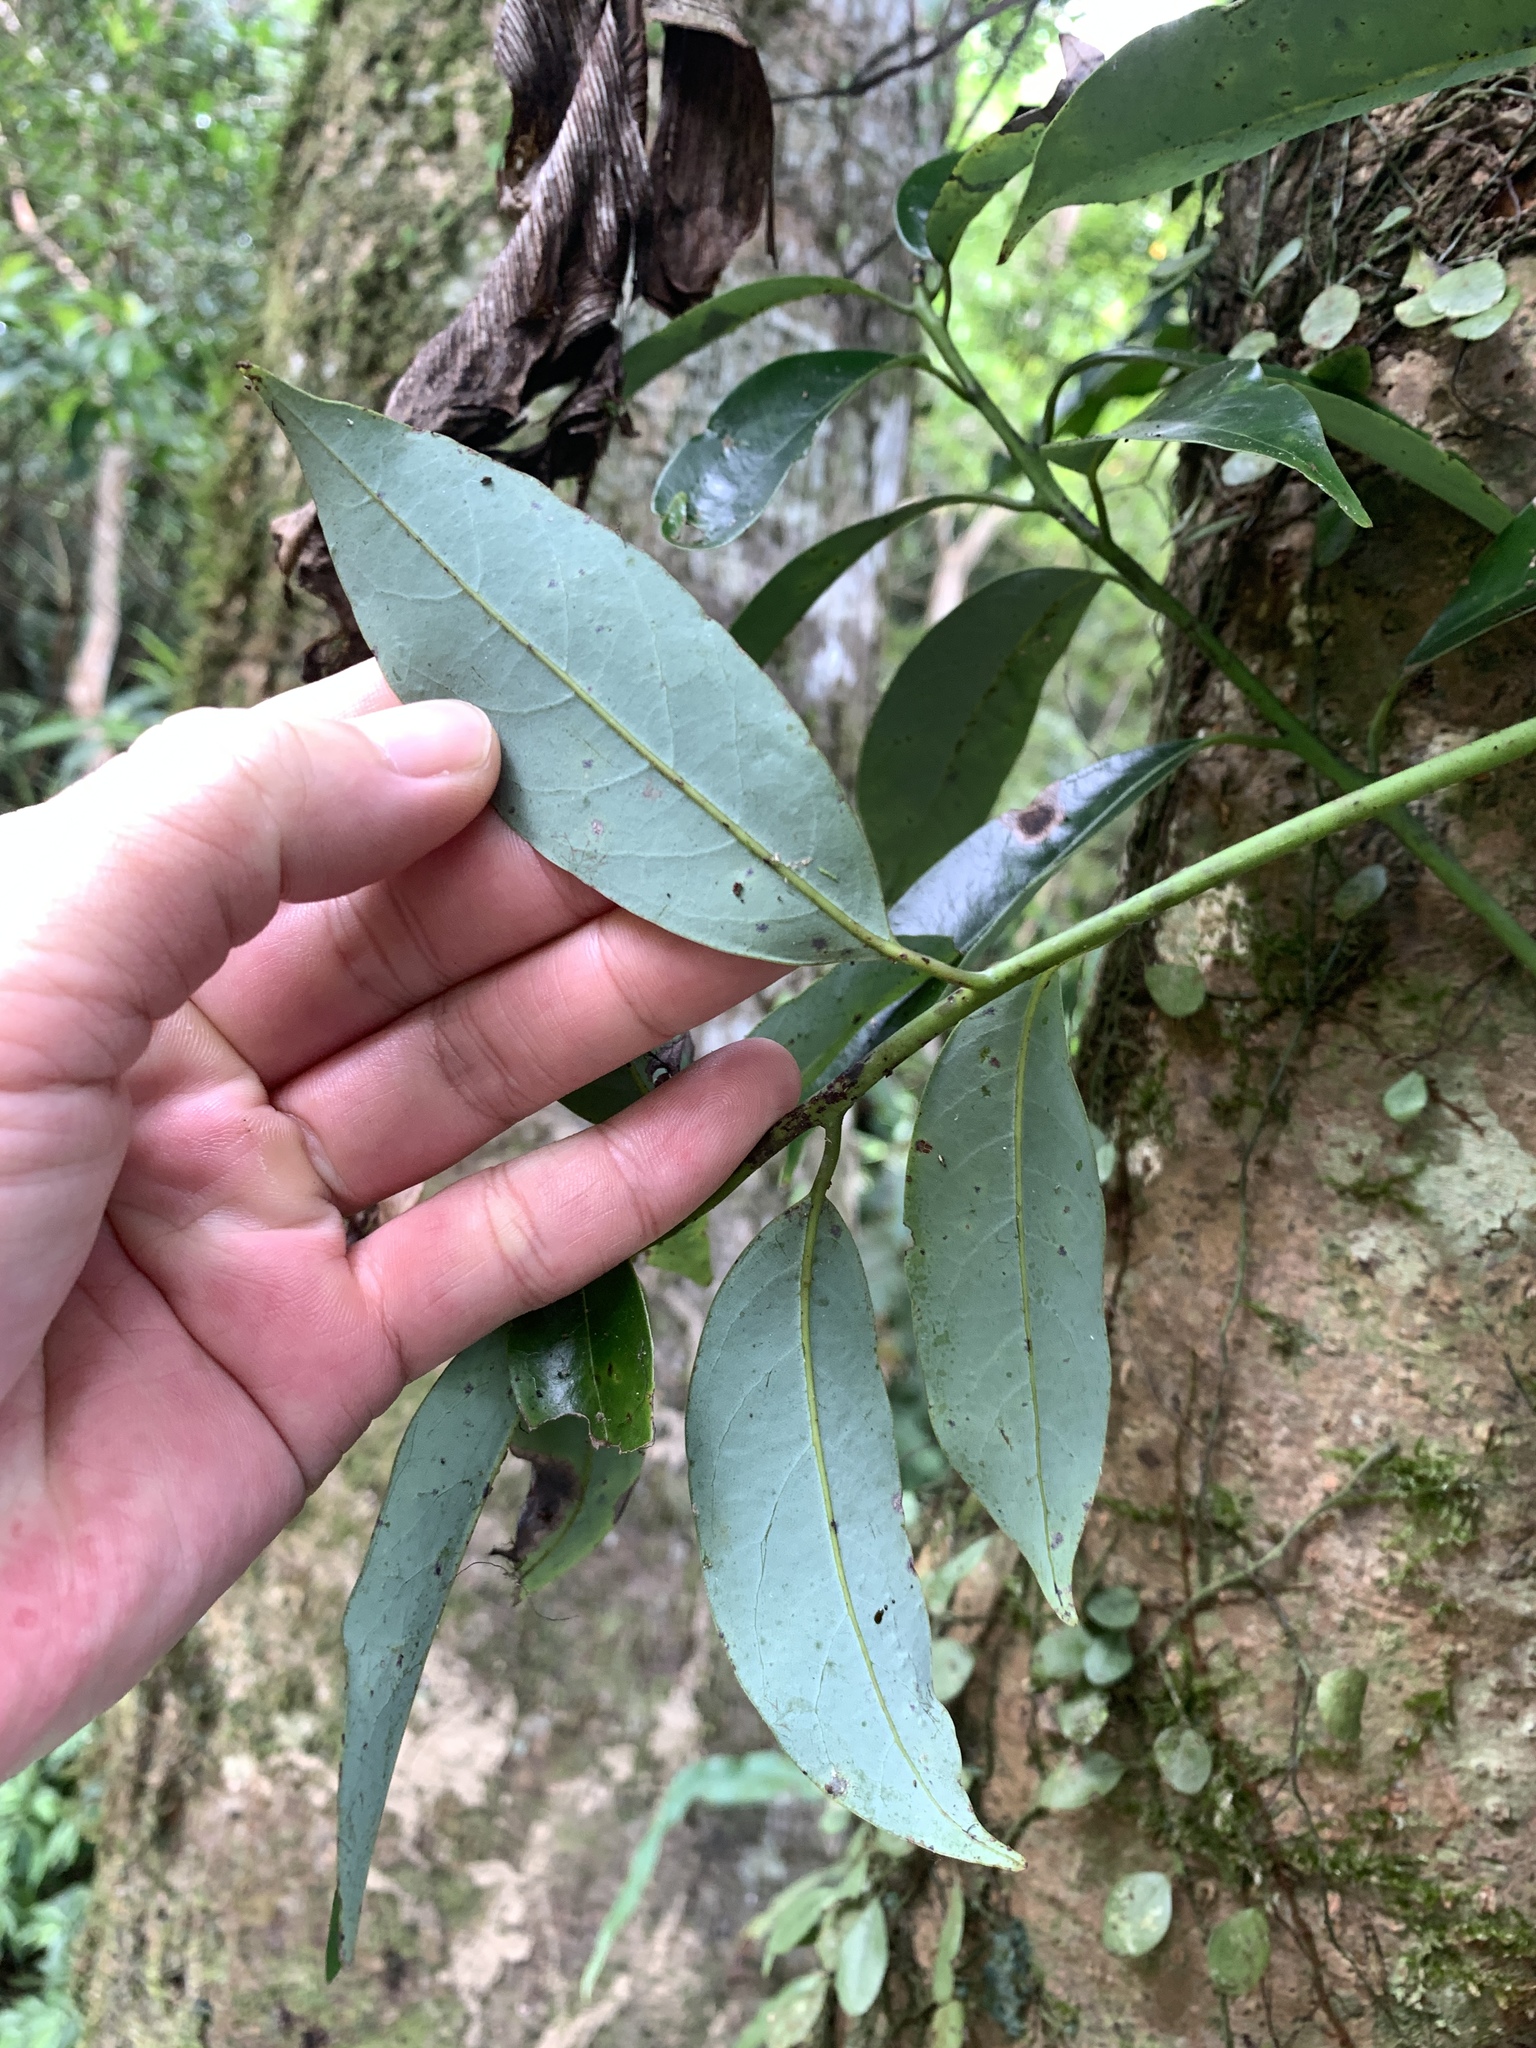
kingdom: Plantae
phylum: Tracheophyta
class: Magnoliopsida
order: Laurales
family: Lauraceae
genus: Machilus
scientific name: Machilus thunbergii
